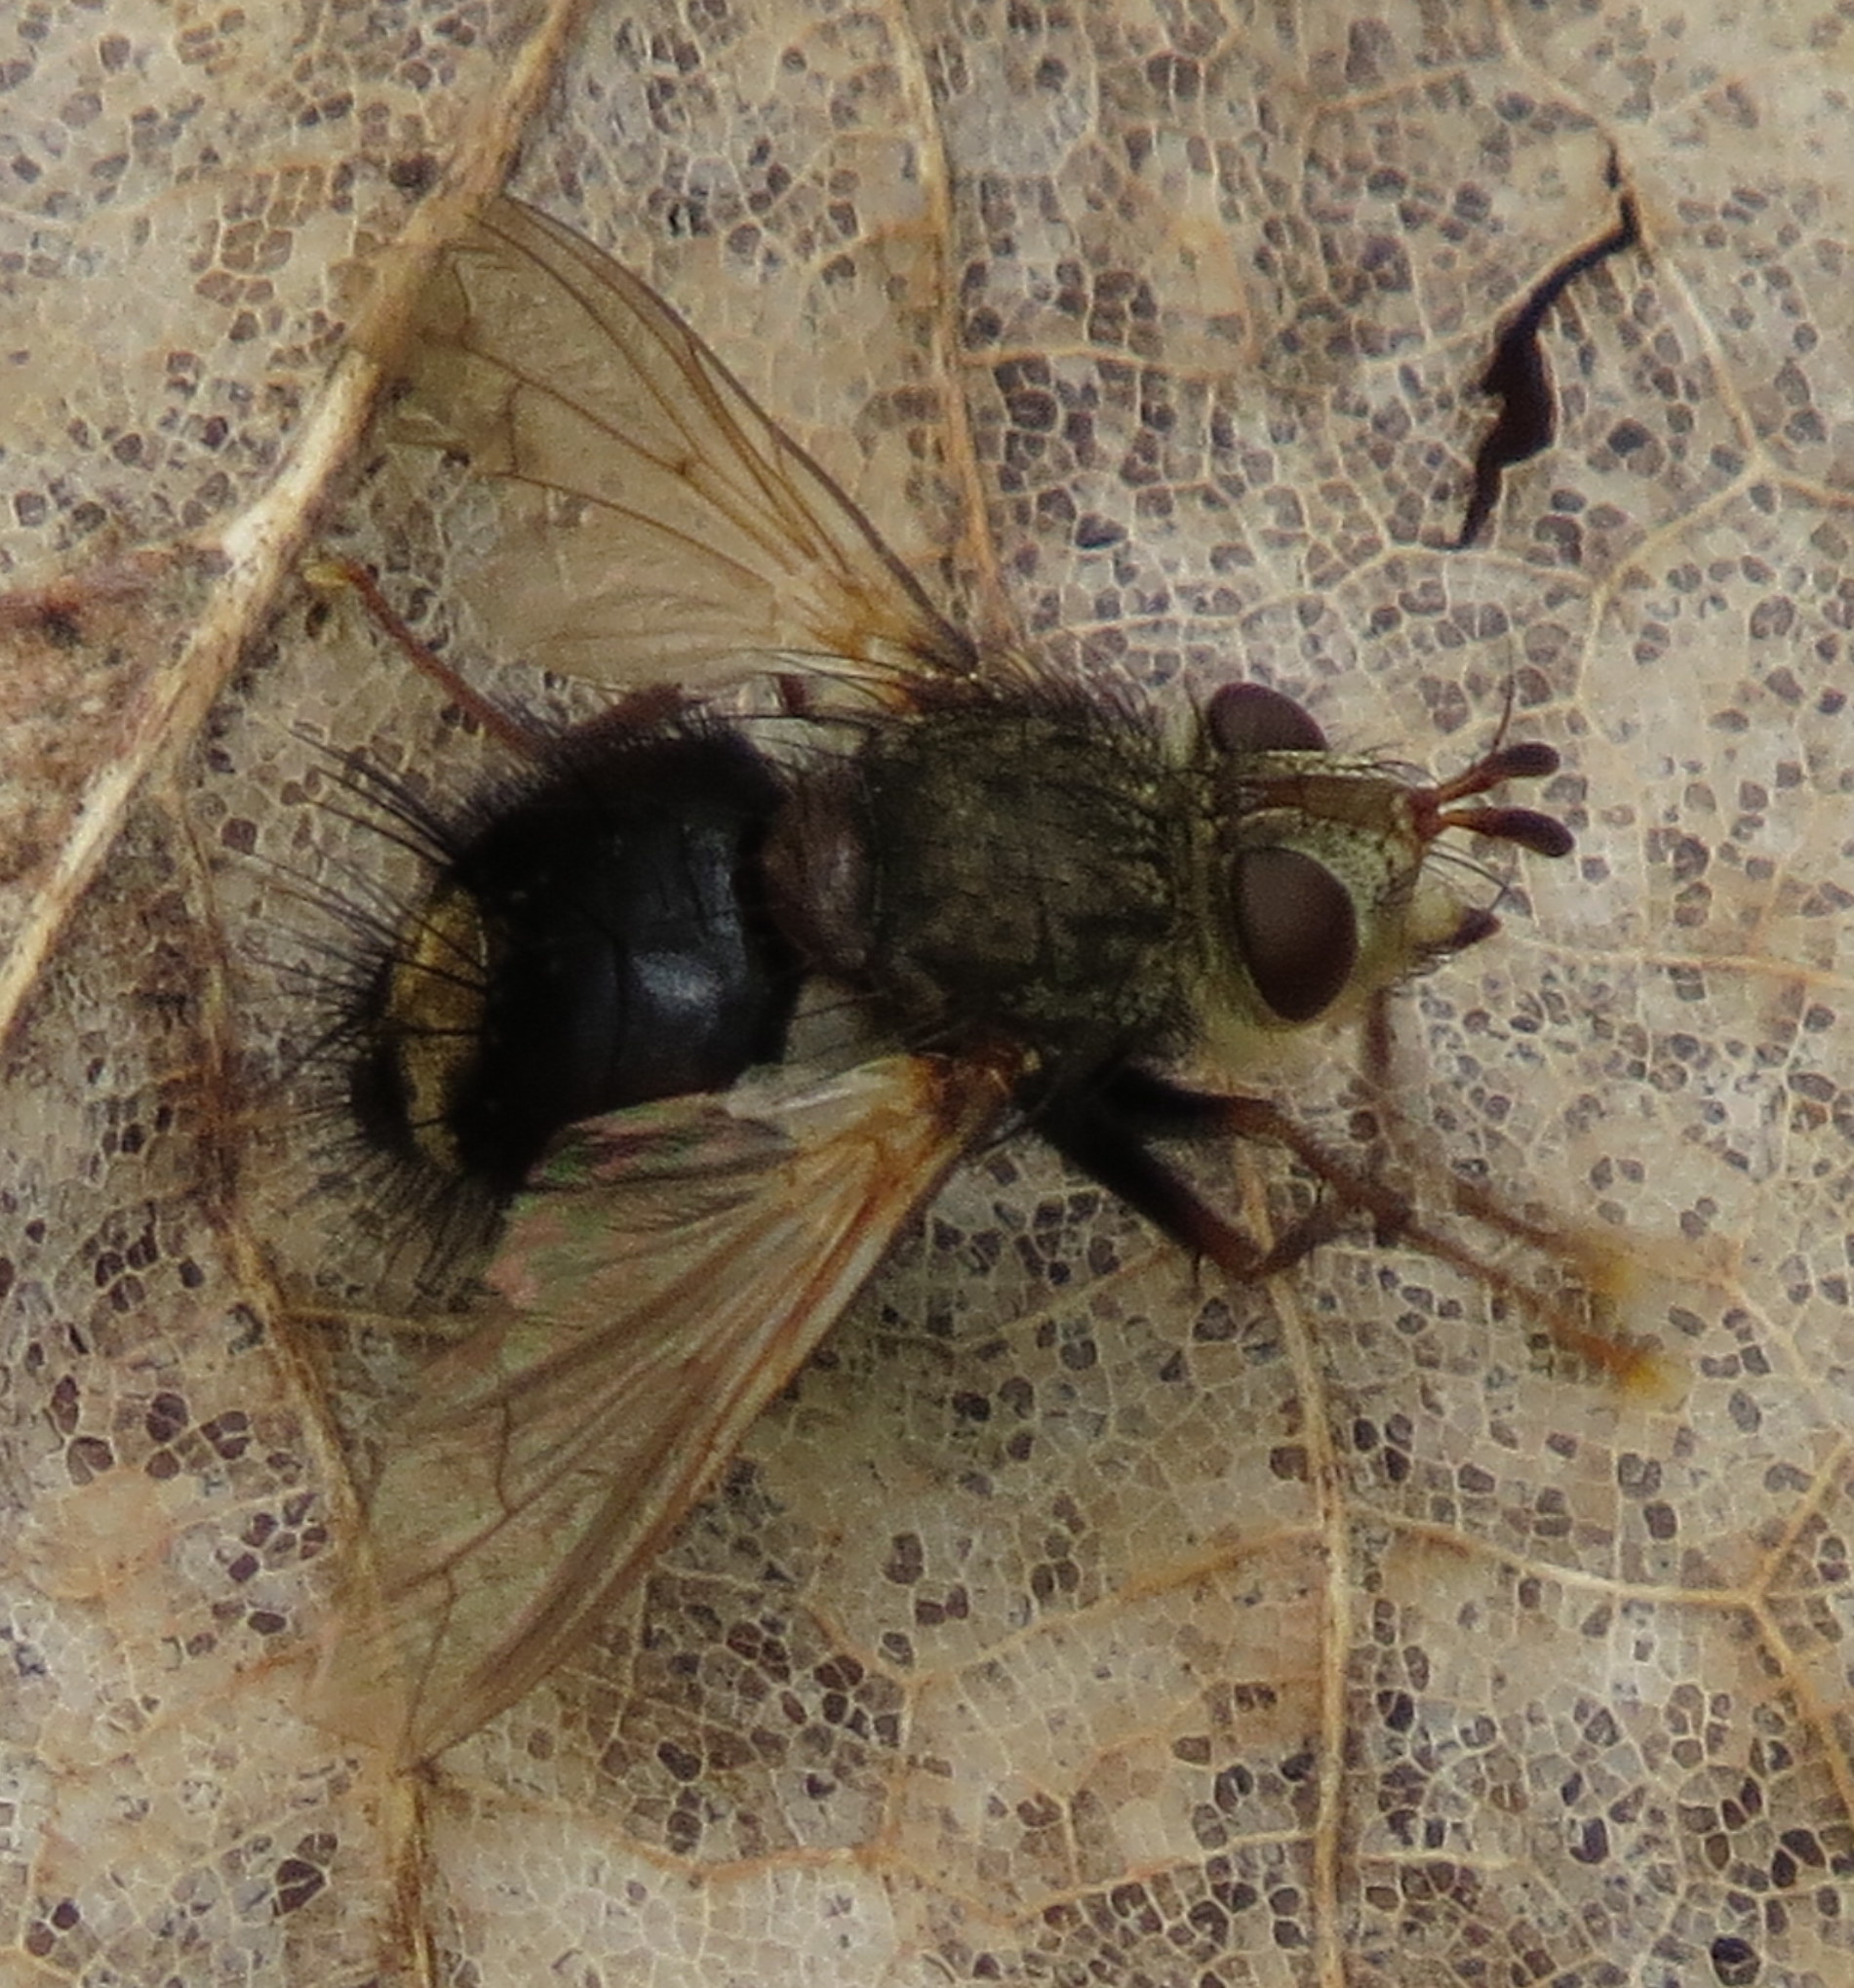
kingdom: Animalia
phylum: Arthropoda
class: Insecta
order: Diptera
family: Tachinidae
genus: Epalpus
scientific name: Epalpus signifer
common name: Early tachinid fly
